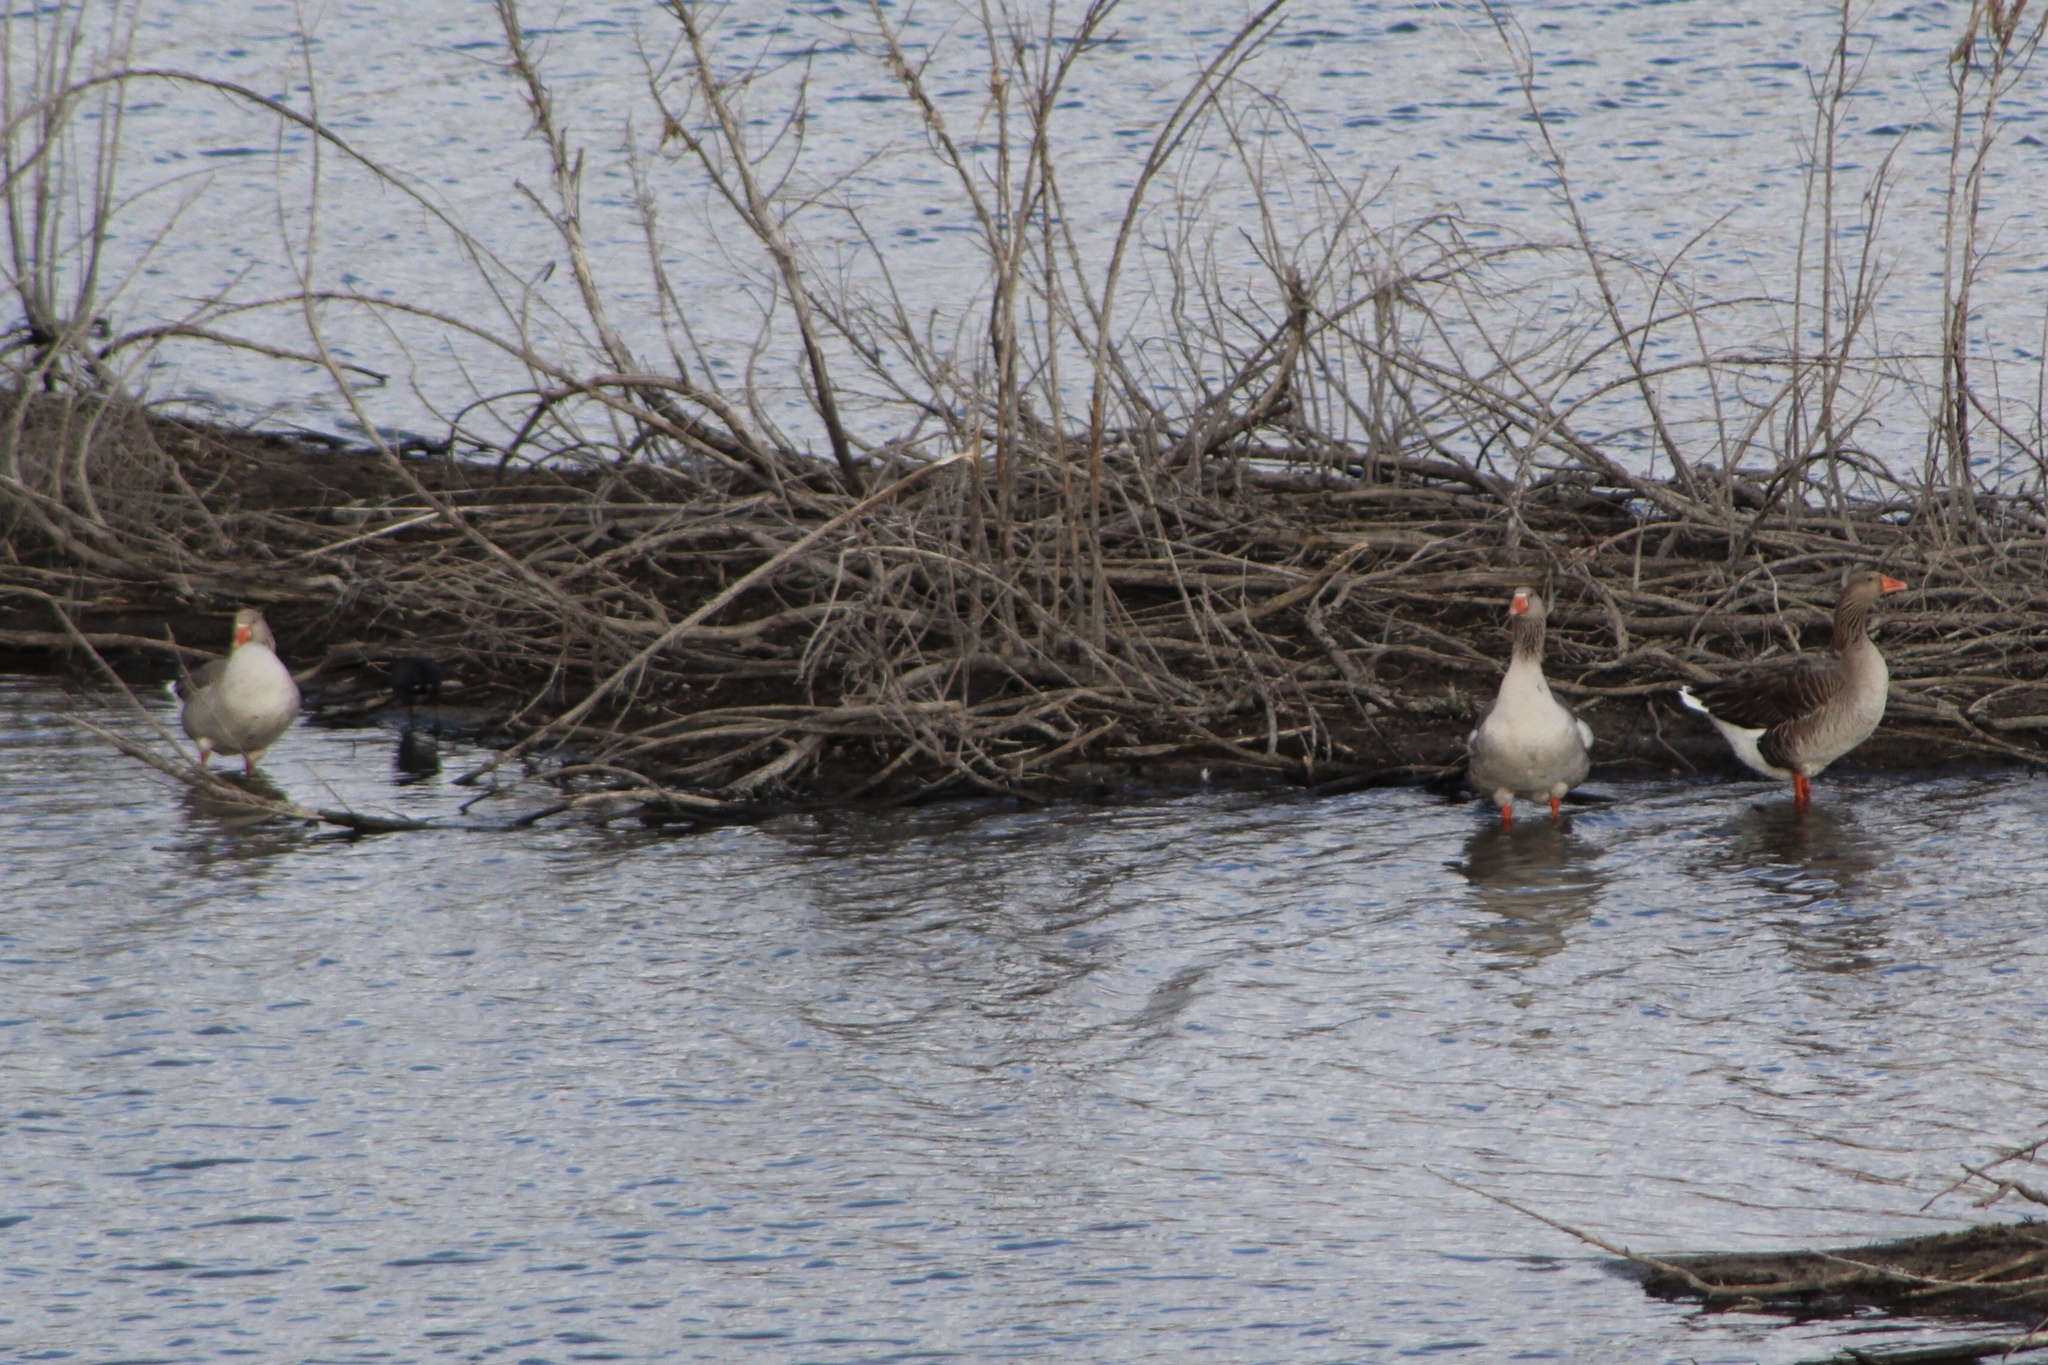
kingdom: Animalia
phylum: Chordata
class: Aves
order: Anseriformes
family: Anatidae
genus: Anser
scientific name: Anser anser
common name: Greylag goose
